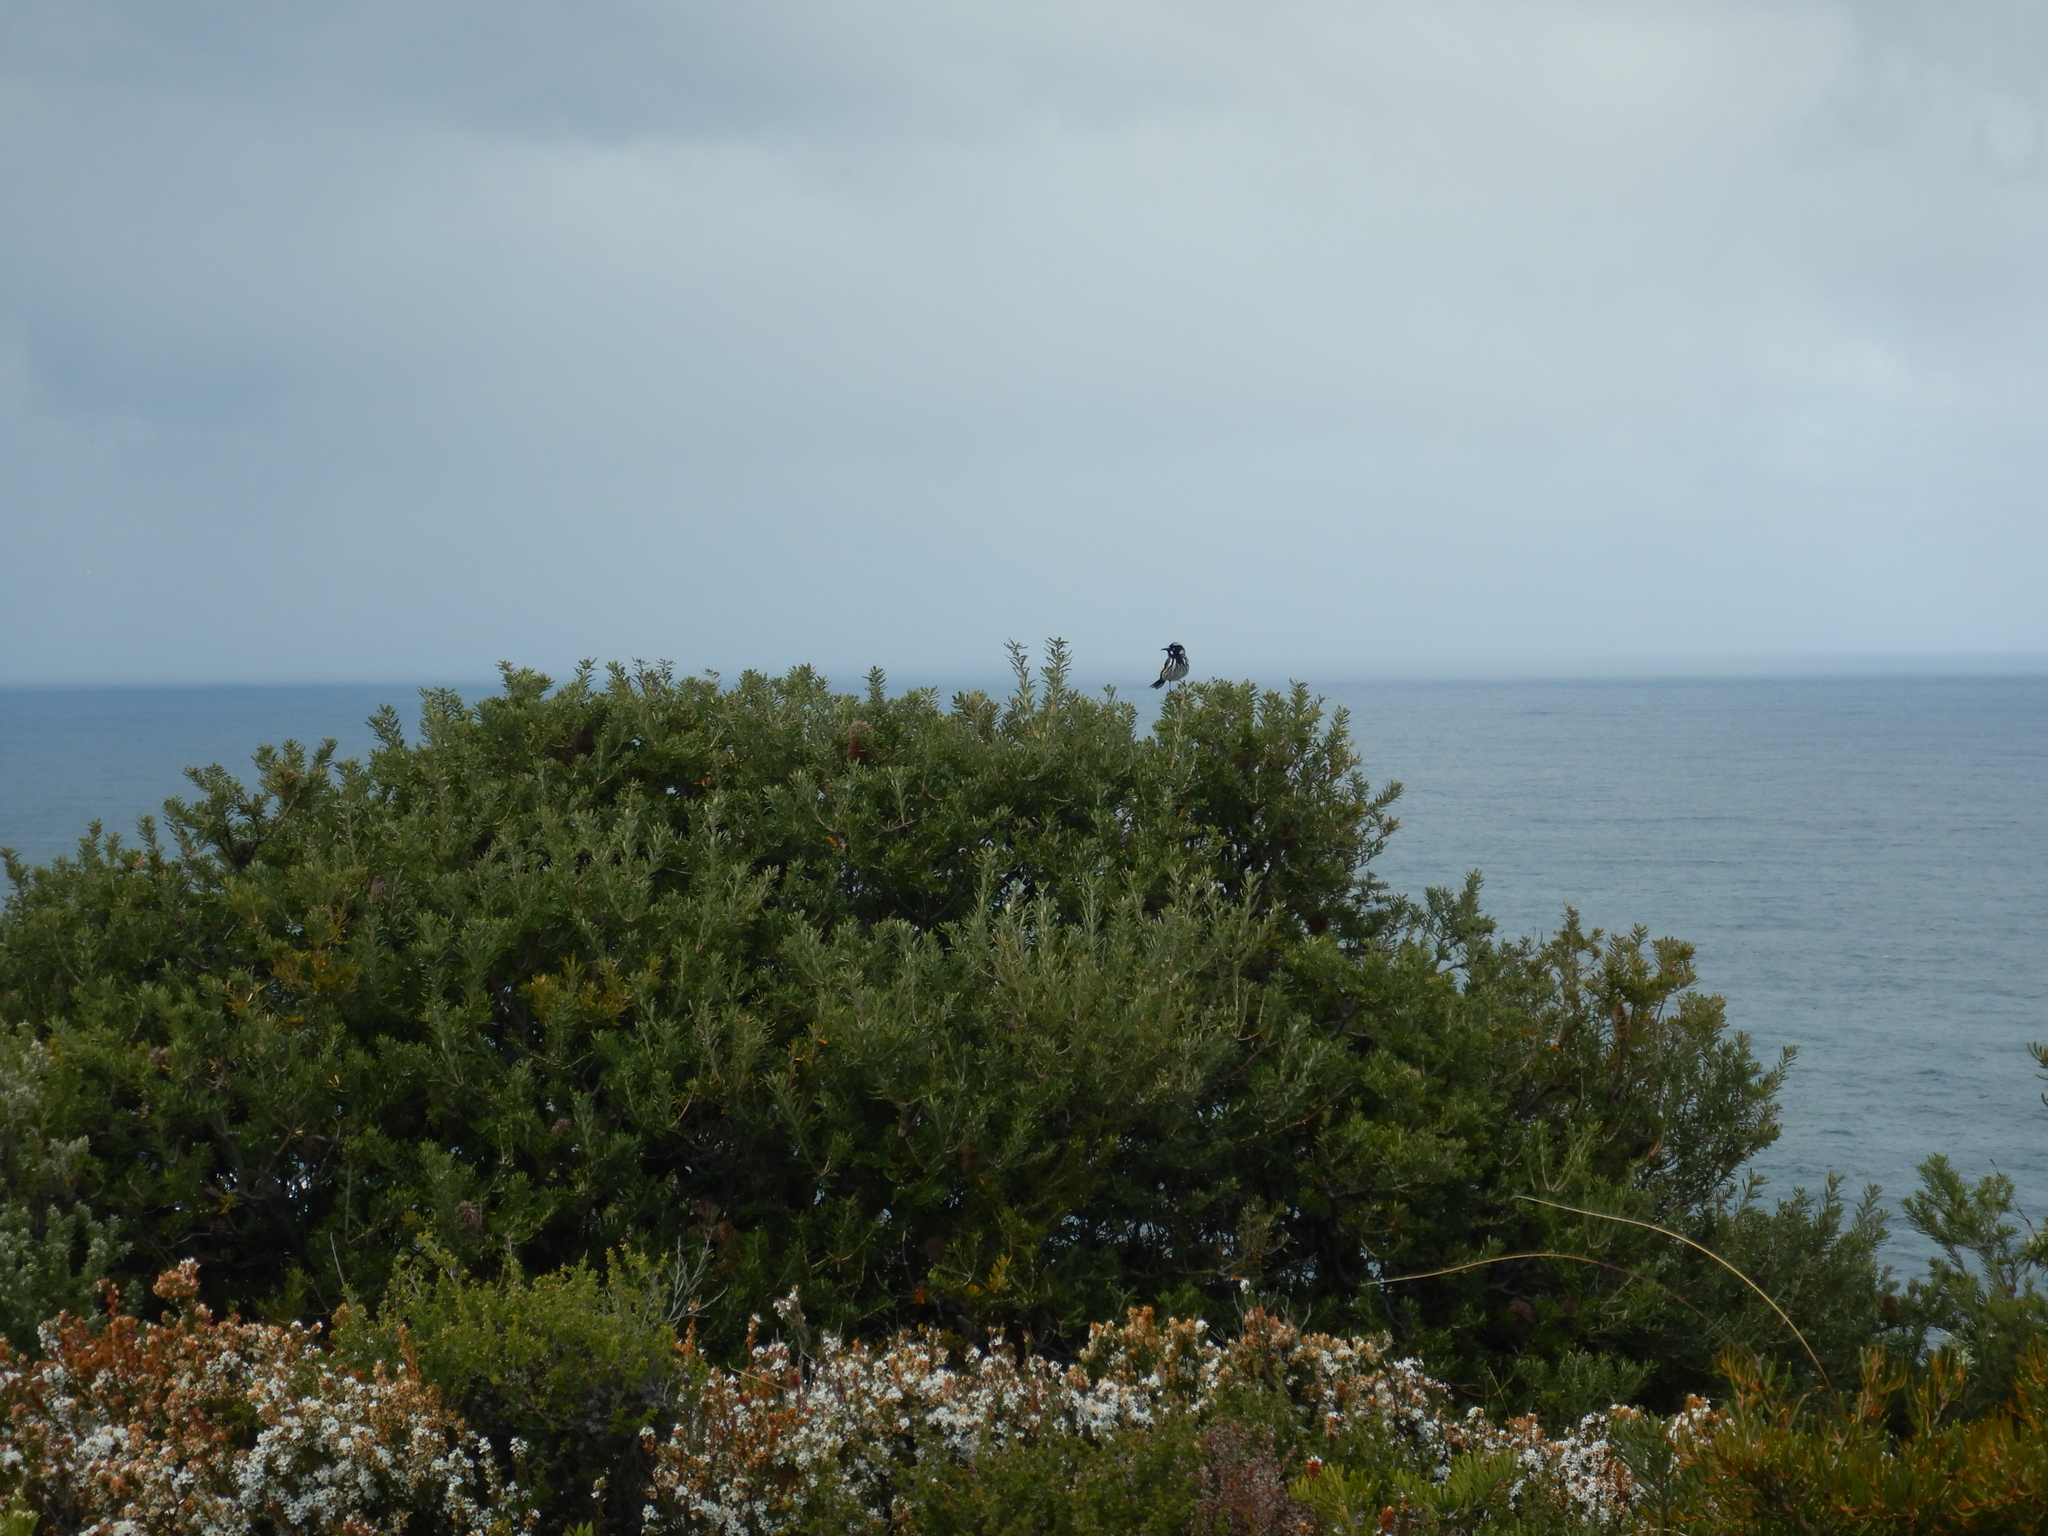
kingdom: Animalia
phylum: Chordata
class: Aves
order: Passeriformes
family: Meliphagidae
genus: Phylidonyris
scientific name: Phylidonyris novaehollandiae
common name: New holland honeyeater
